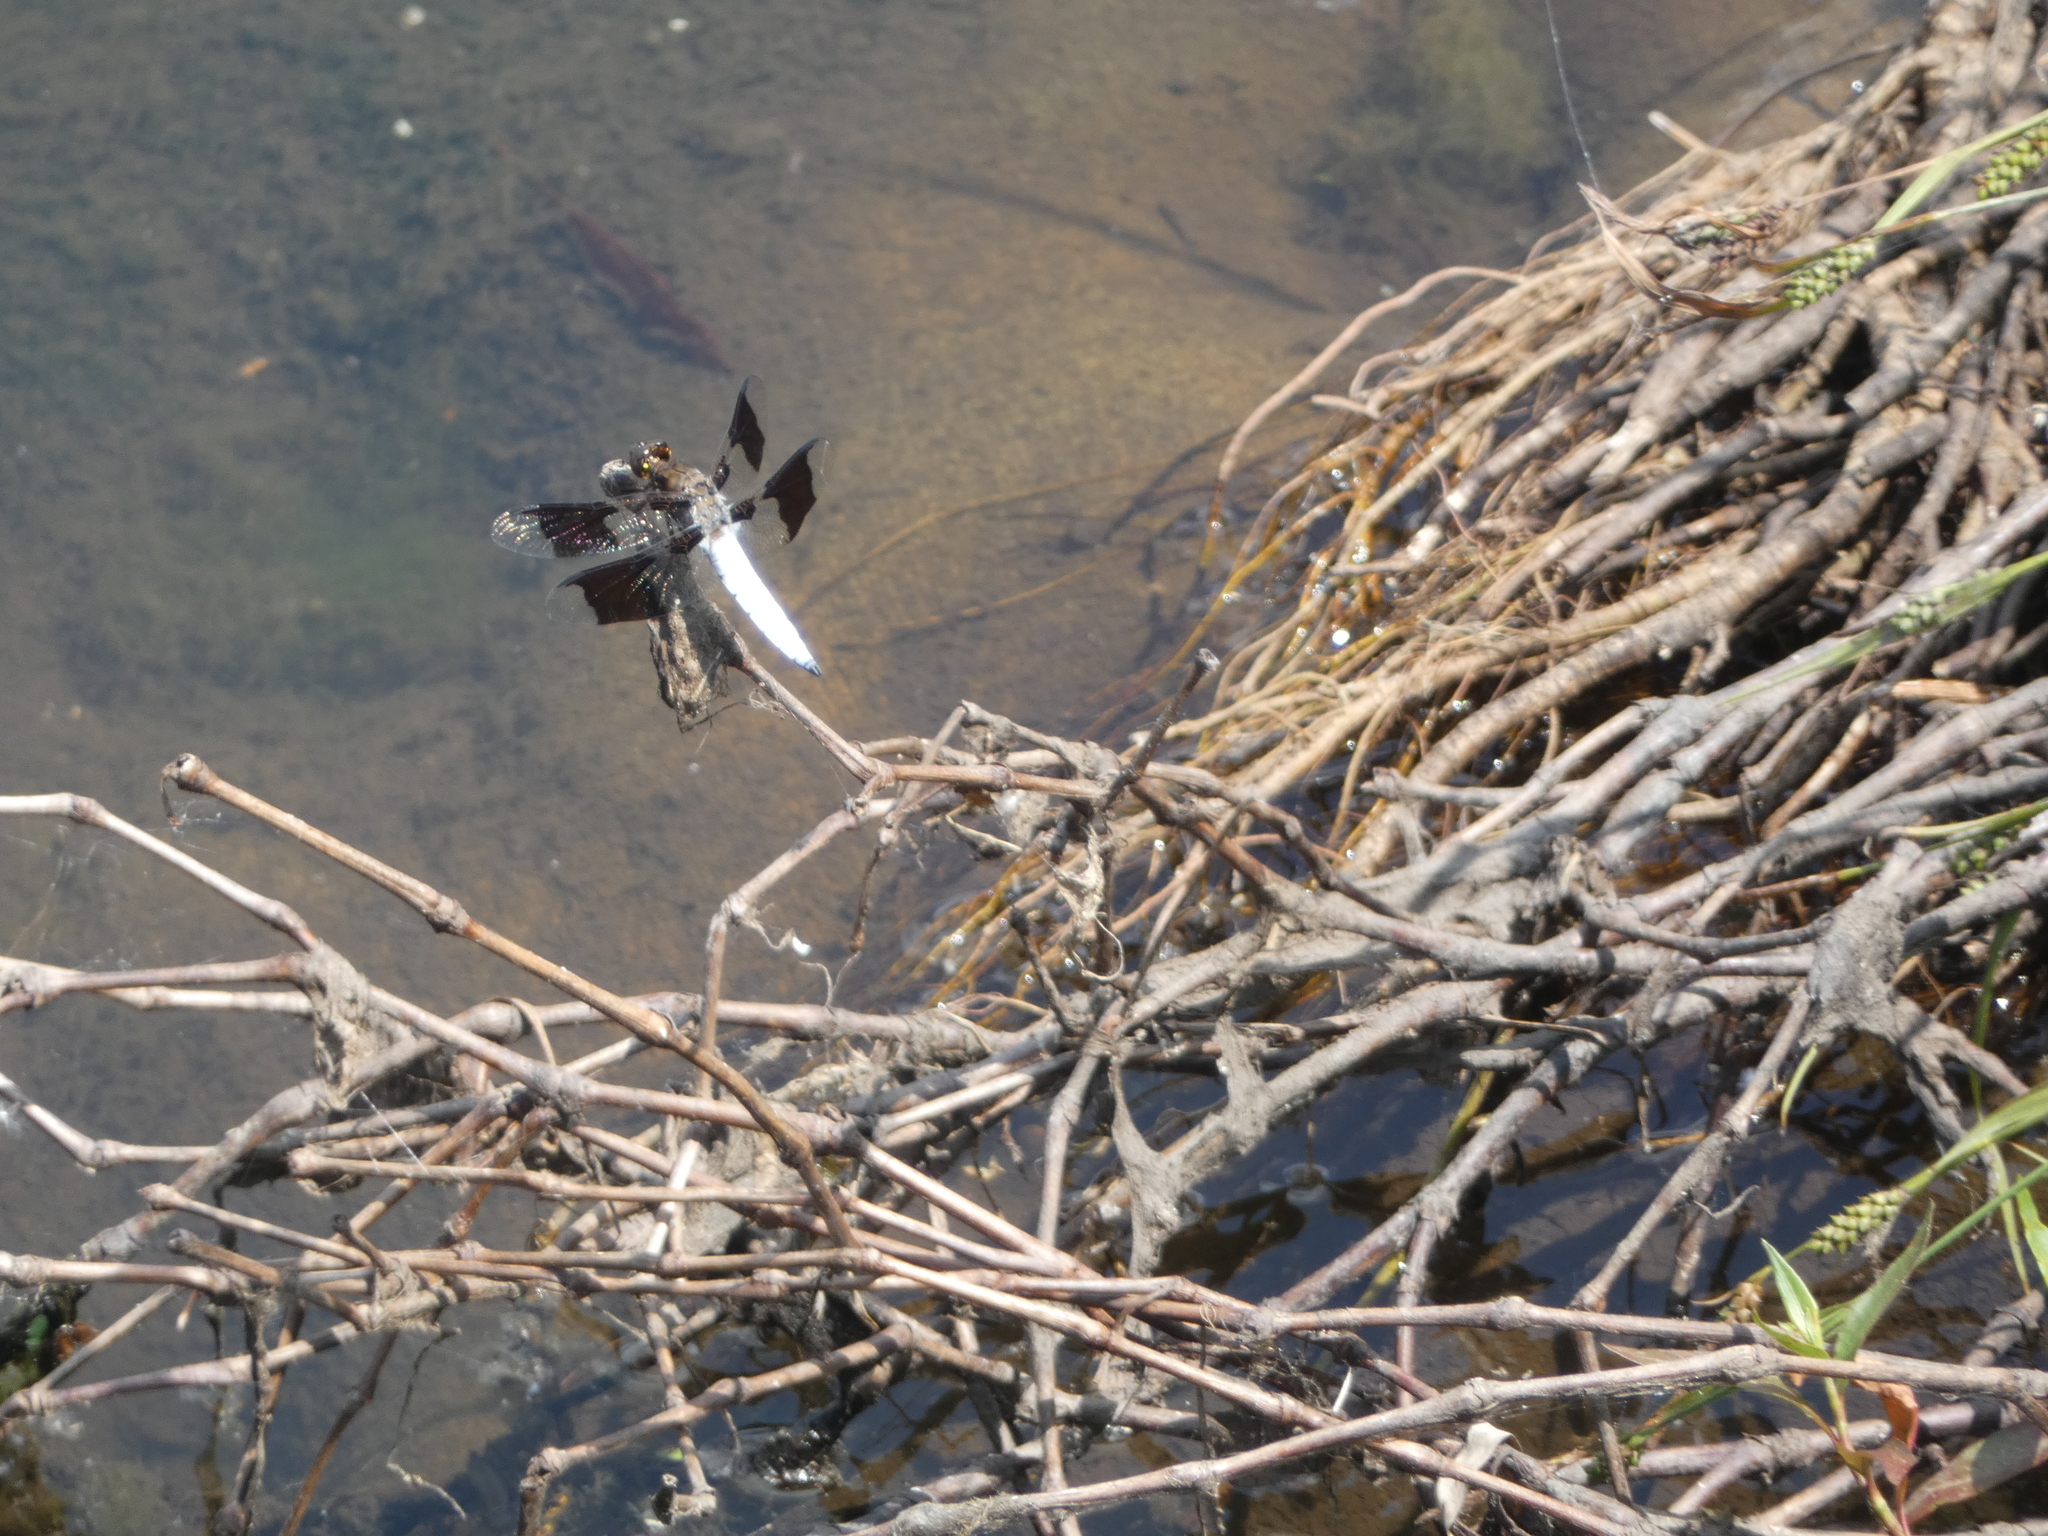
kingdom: Animalia
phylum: Arthropoda
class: Insecta
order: Odonata
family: Libellulidae
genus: Plathemis
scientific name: Plathemis lydia
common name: Common whitetail
